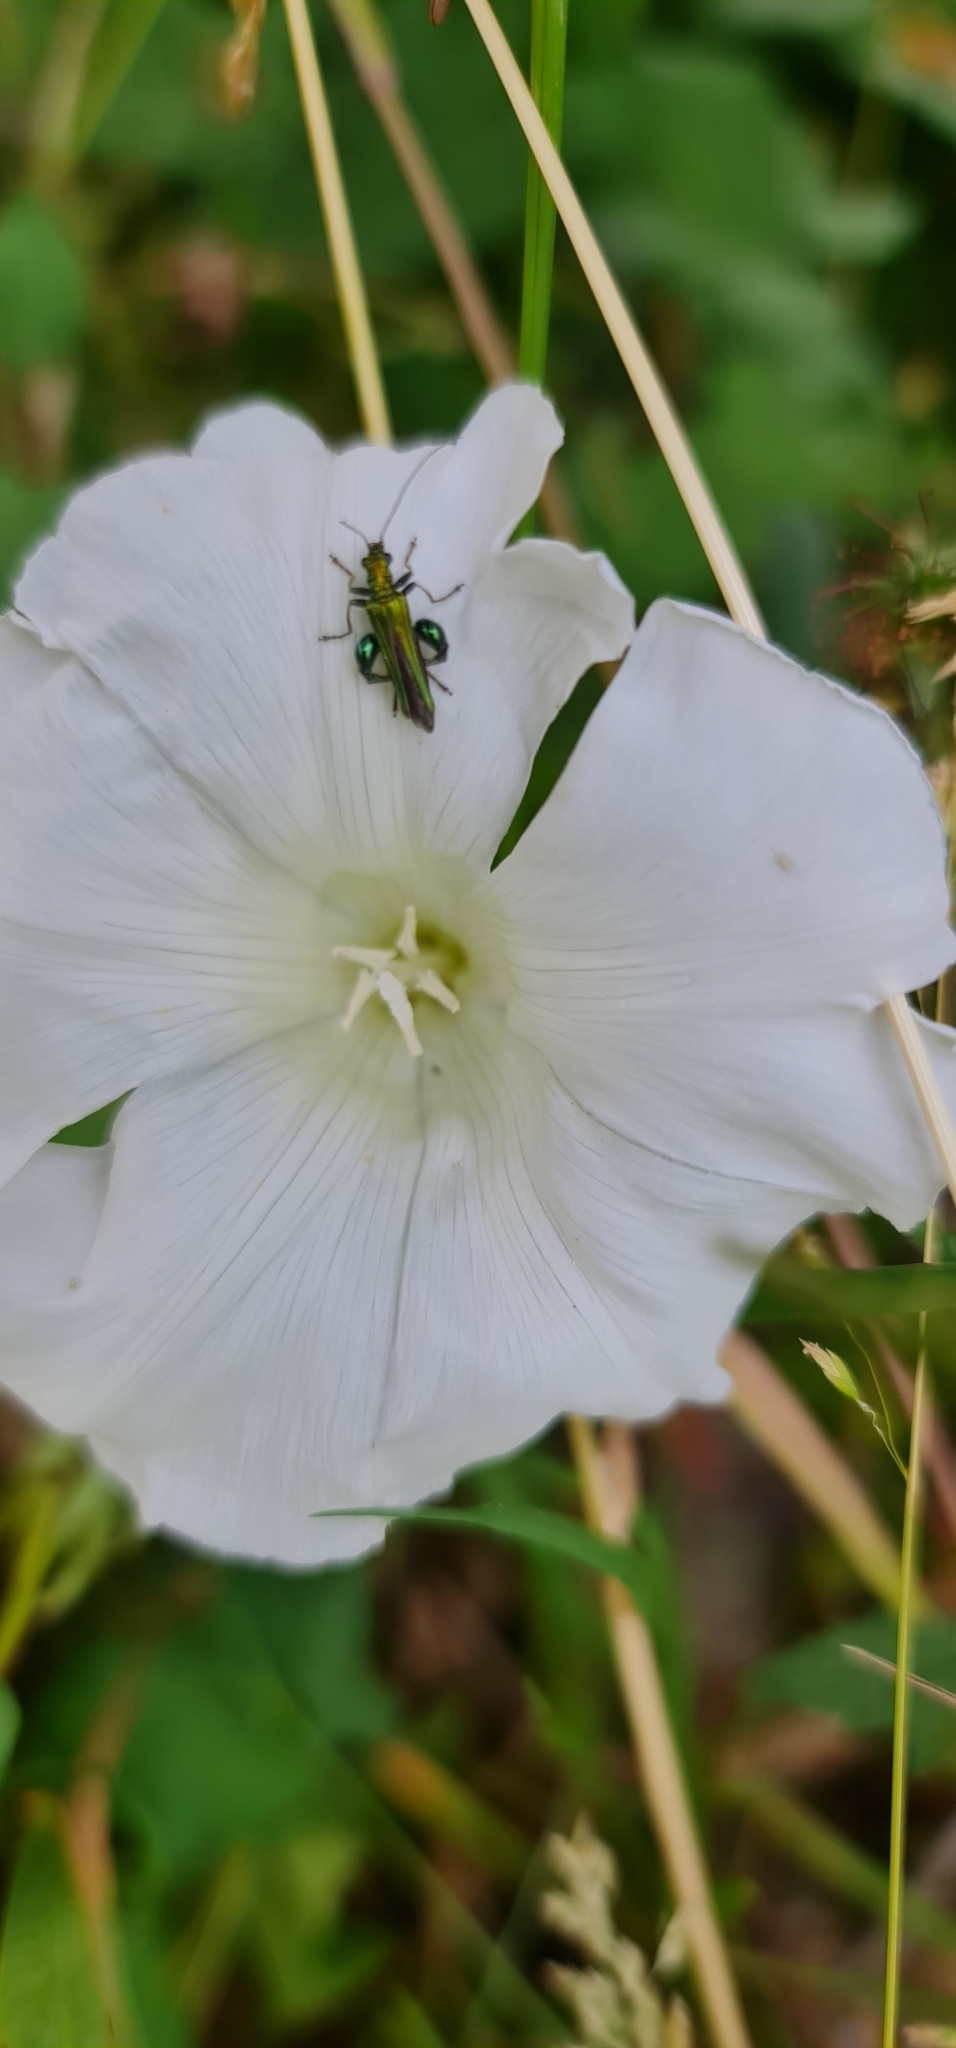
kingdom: Animalia
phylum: Arthropoda
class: Insecta
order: Coleoptera
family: Oedemeridae
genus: Oedemera
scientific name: Oedemera nobilis
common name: Swollen-thighed beetle
